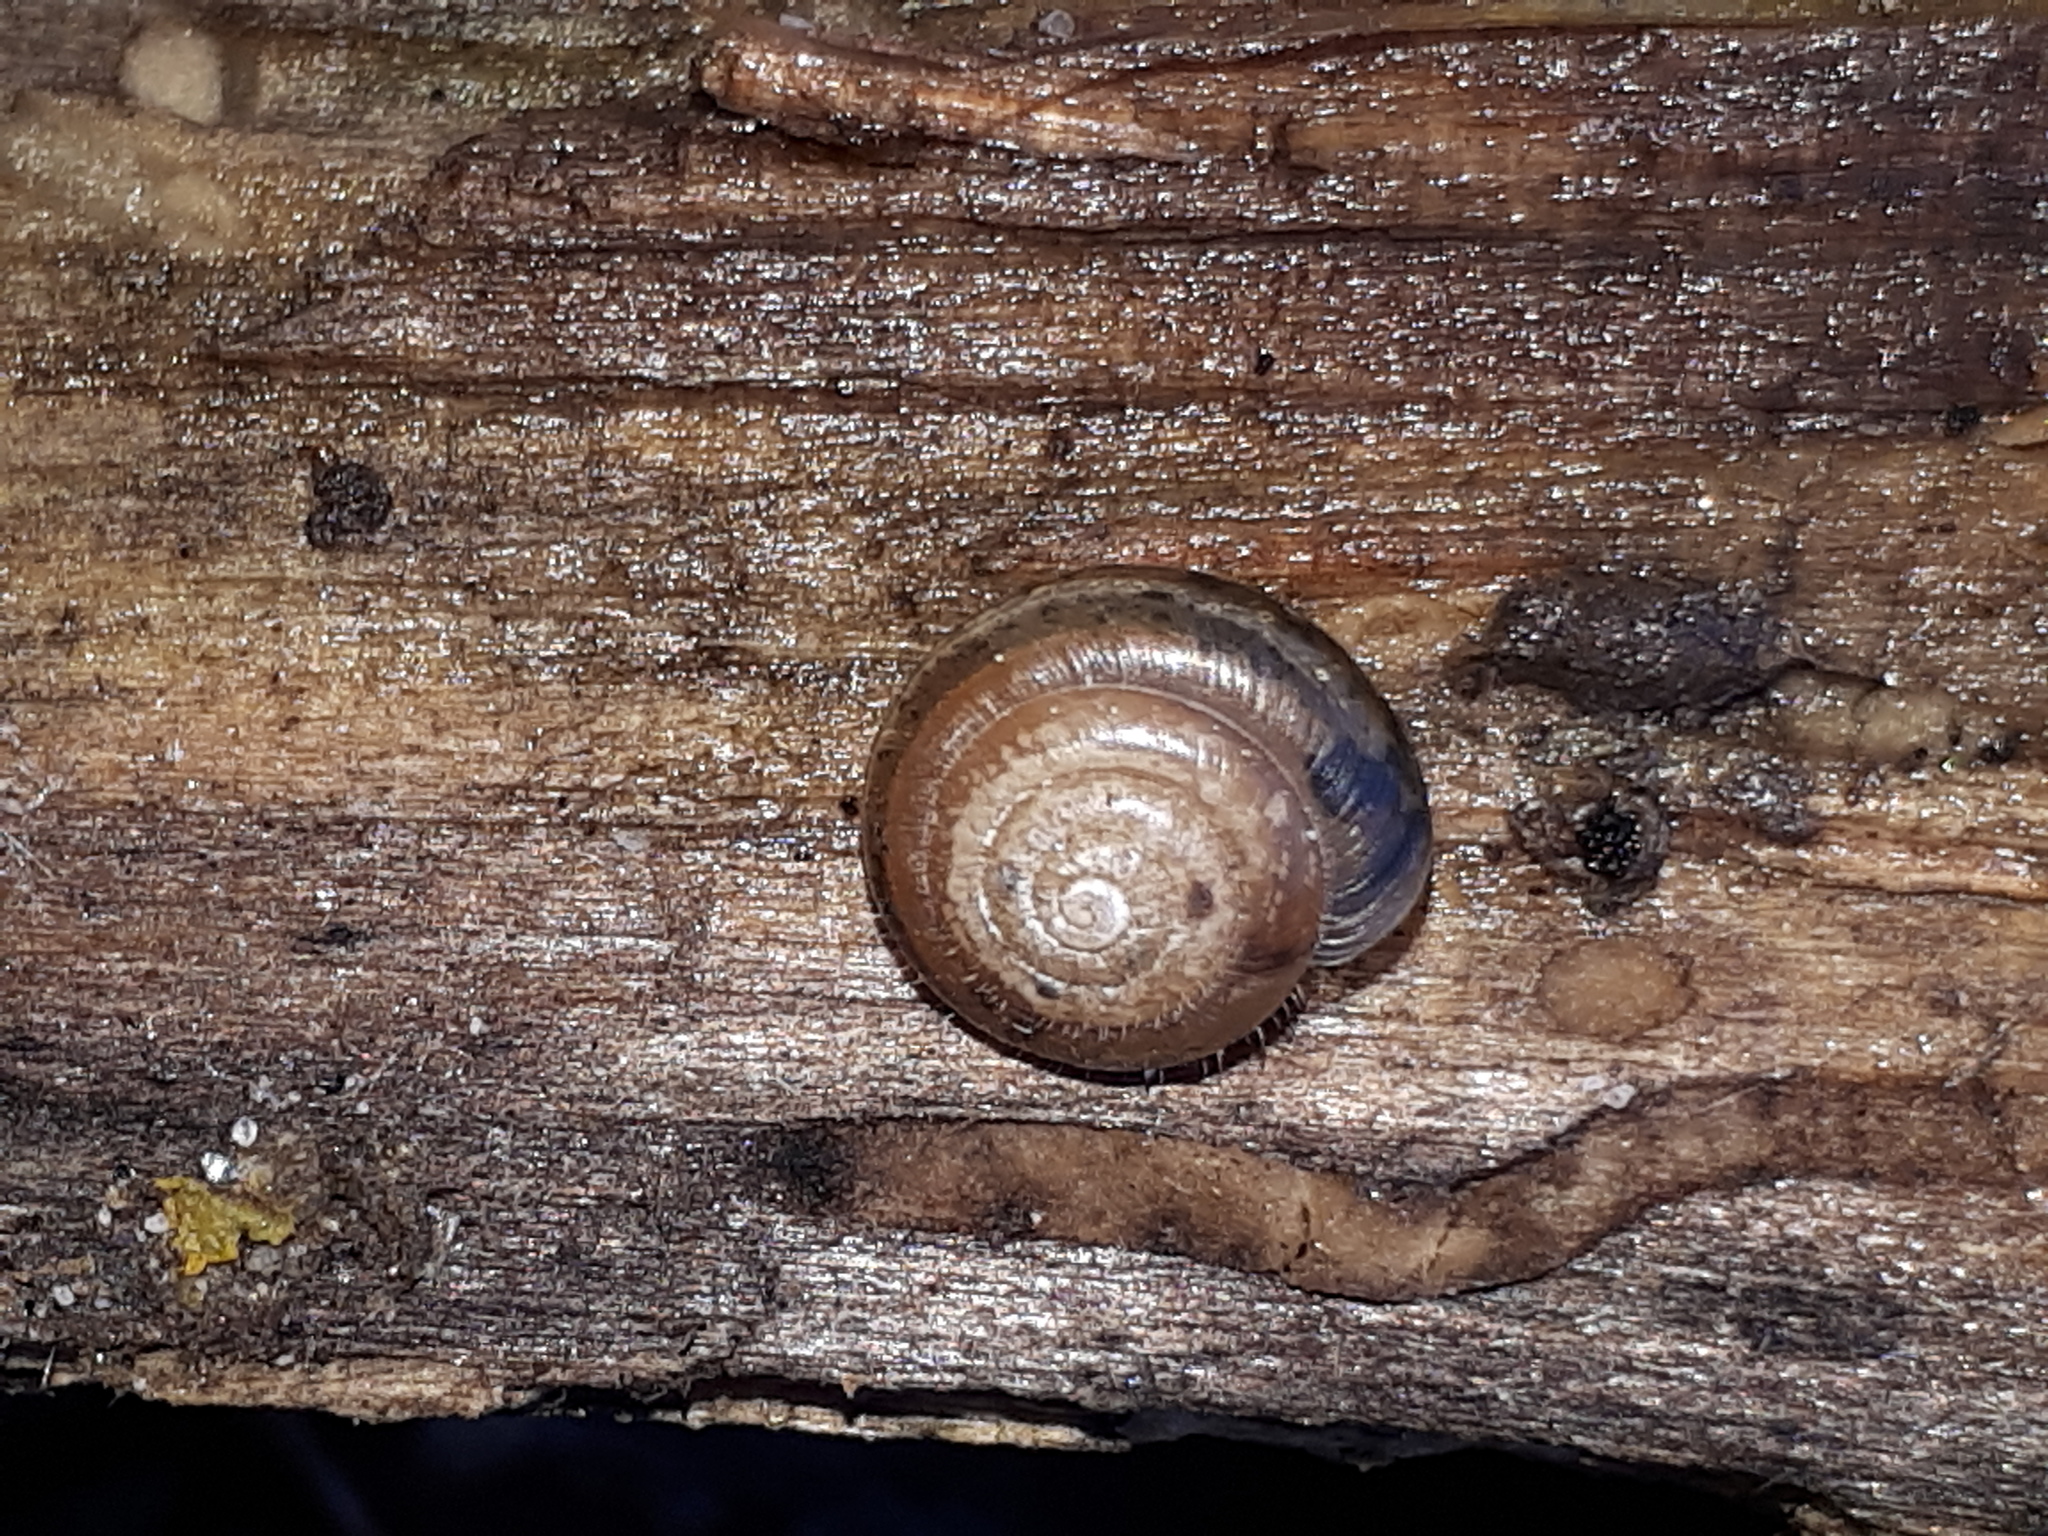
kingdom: Animalia
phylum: Mollusca
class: Gastropoda
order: Stylommatophora
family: Hygromiidae
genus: Trochulus
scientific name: Trochulus hispidus
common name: Hairy snail
